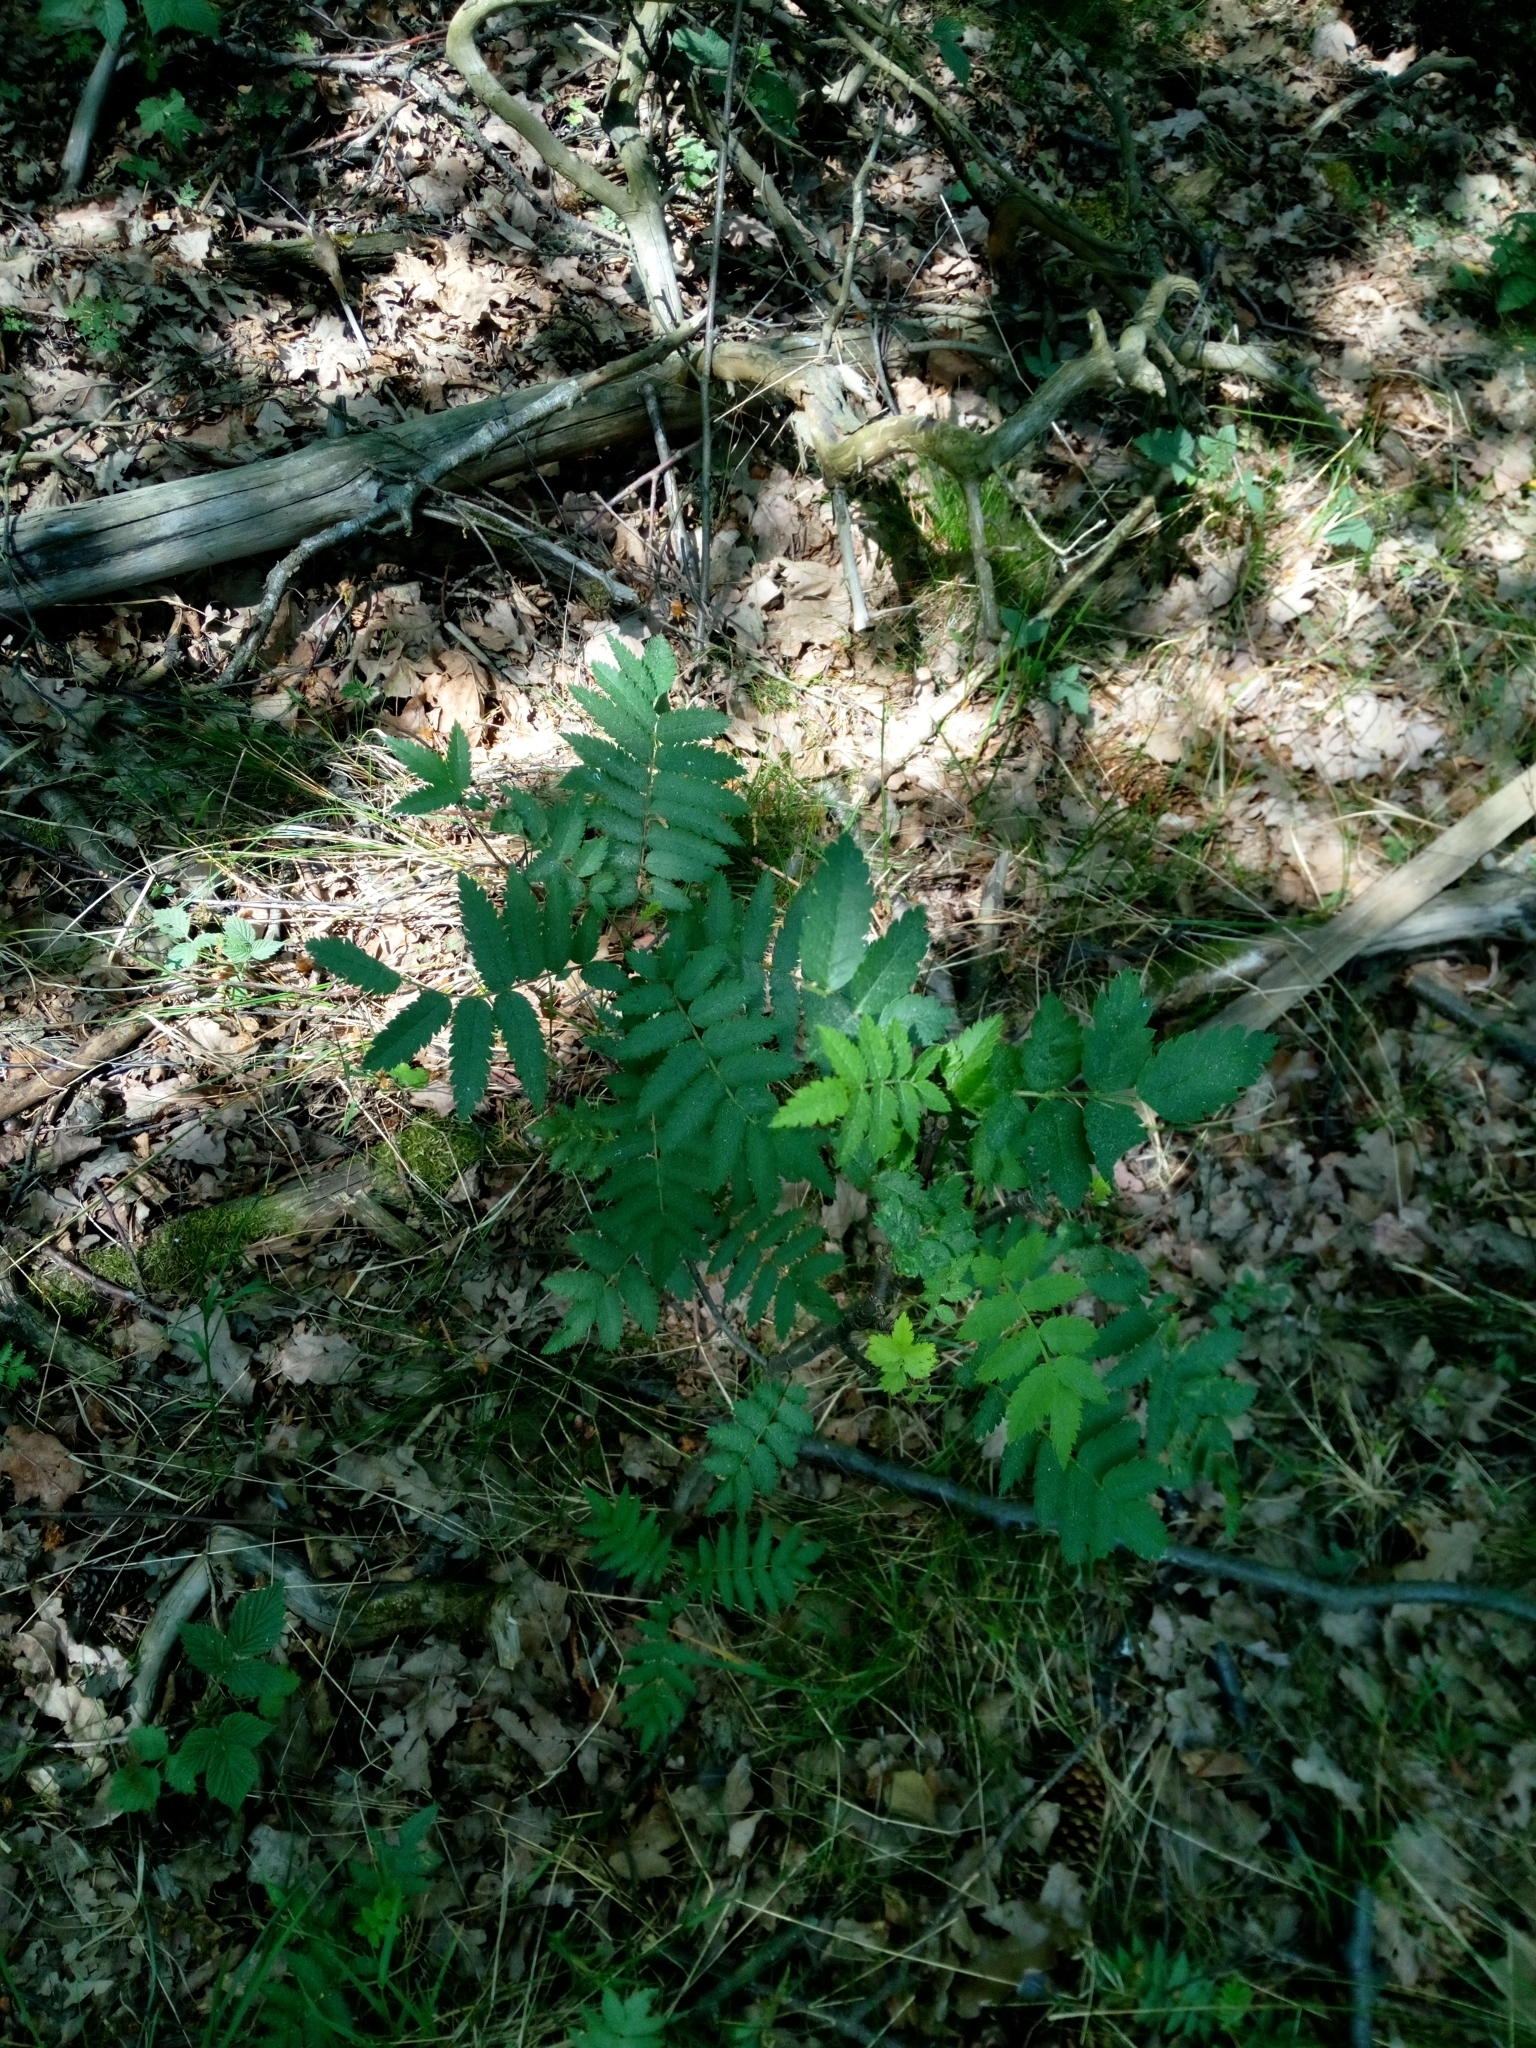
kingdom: Plantae
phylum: Tracheophyta
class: Magnoliopsida
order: Rosales
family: Rosaceae
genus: Sorbus
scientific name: Sorbus aucuparia
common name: Rowan
